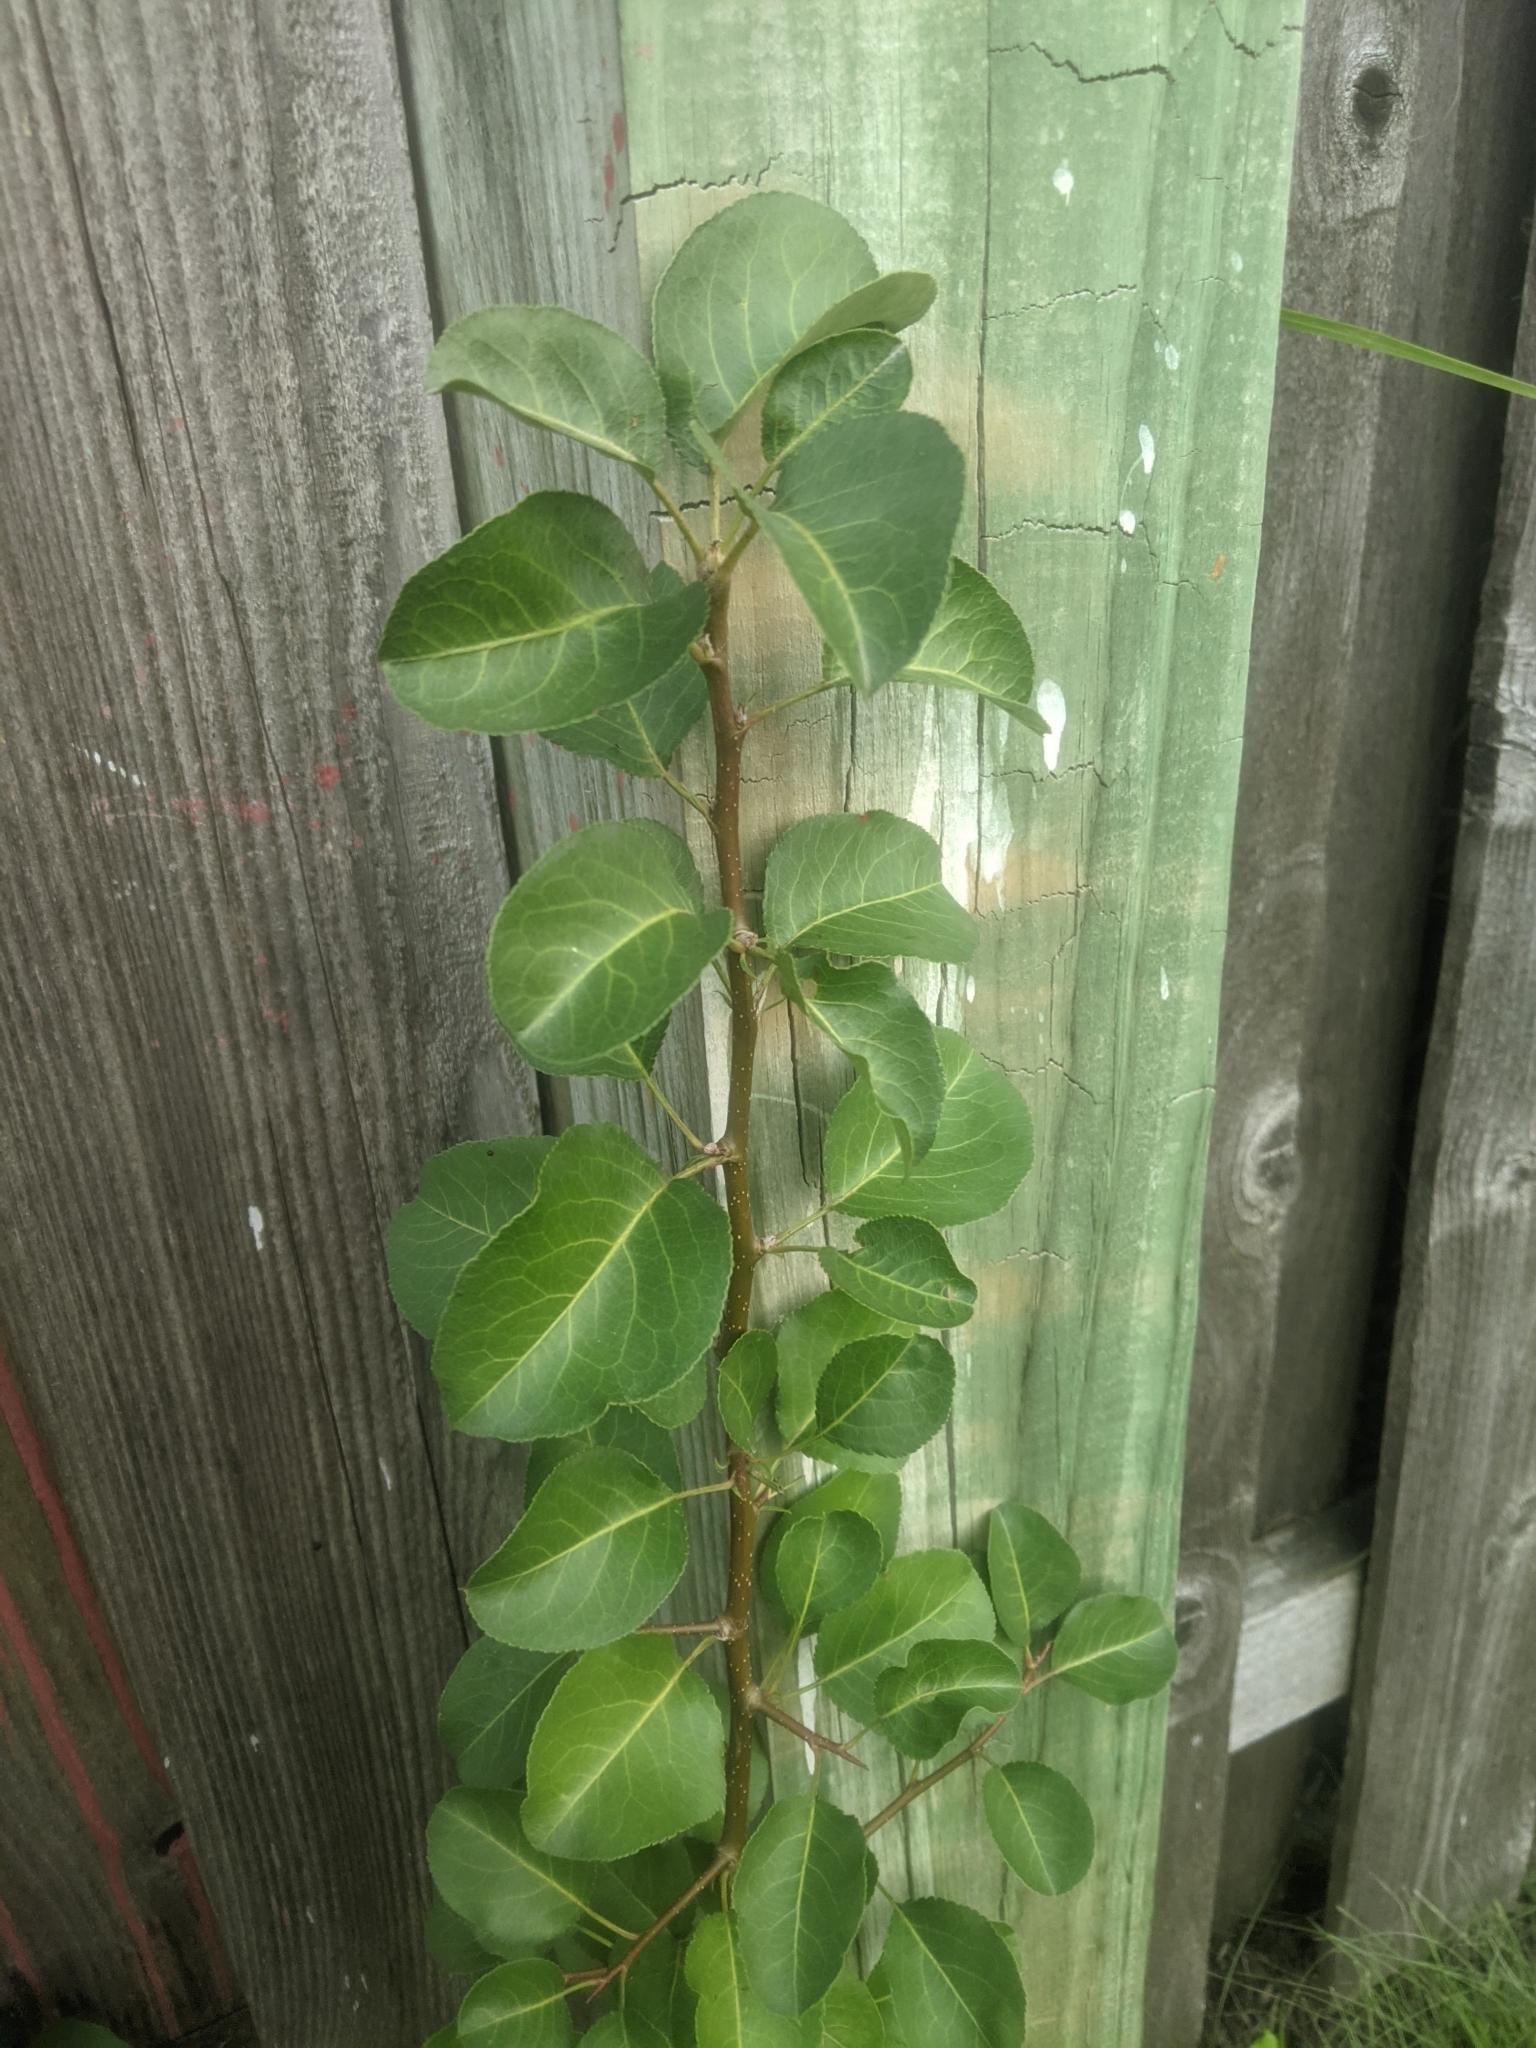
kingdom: Plantae
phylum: Tracheophyta
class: Magnoliopsida
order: Rosales
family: Rosaceae
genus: Pyrus
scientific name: Pyrus calleryana
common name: Callery pear
